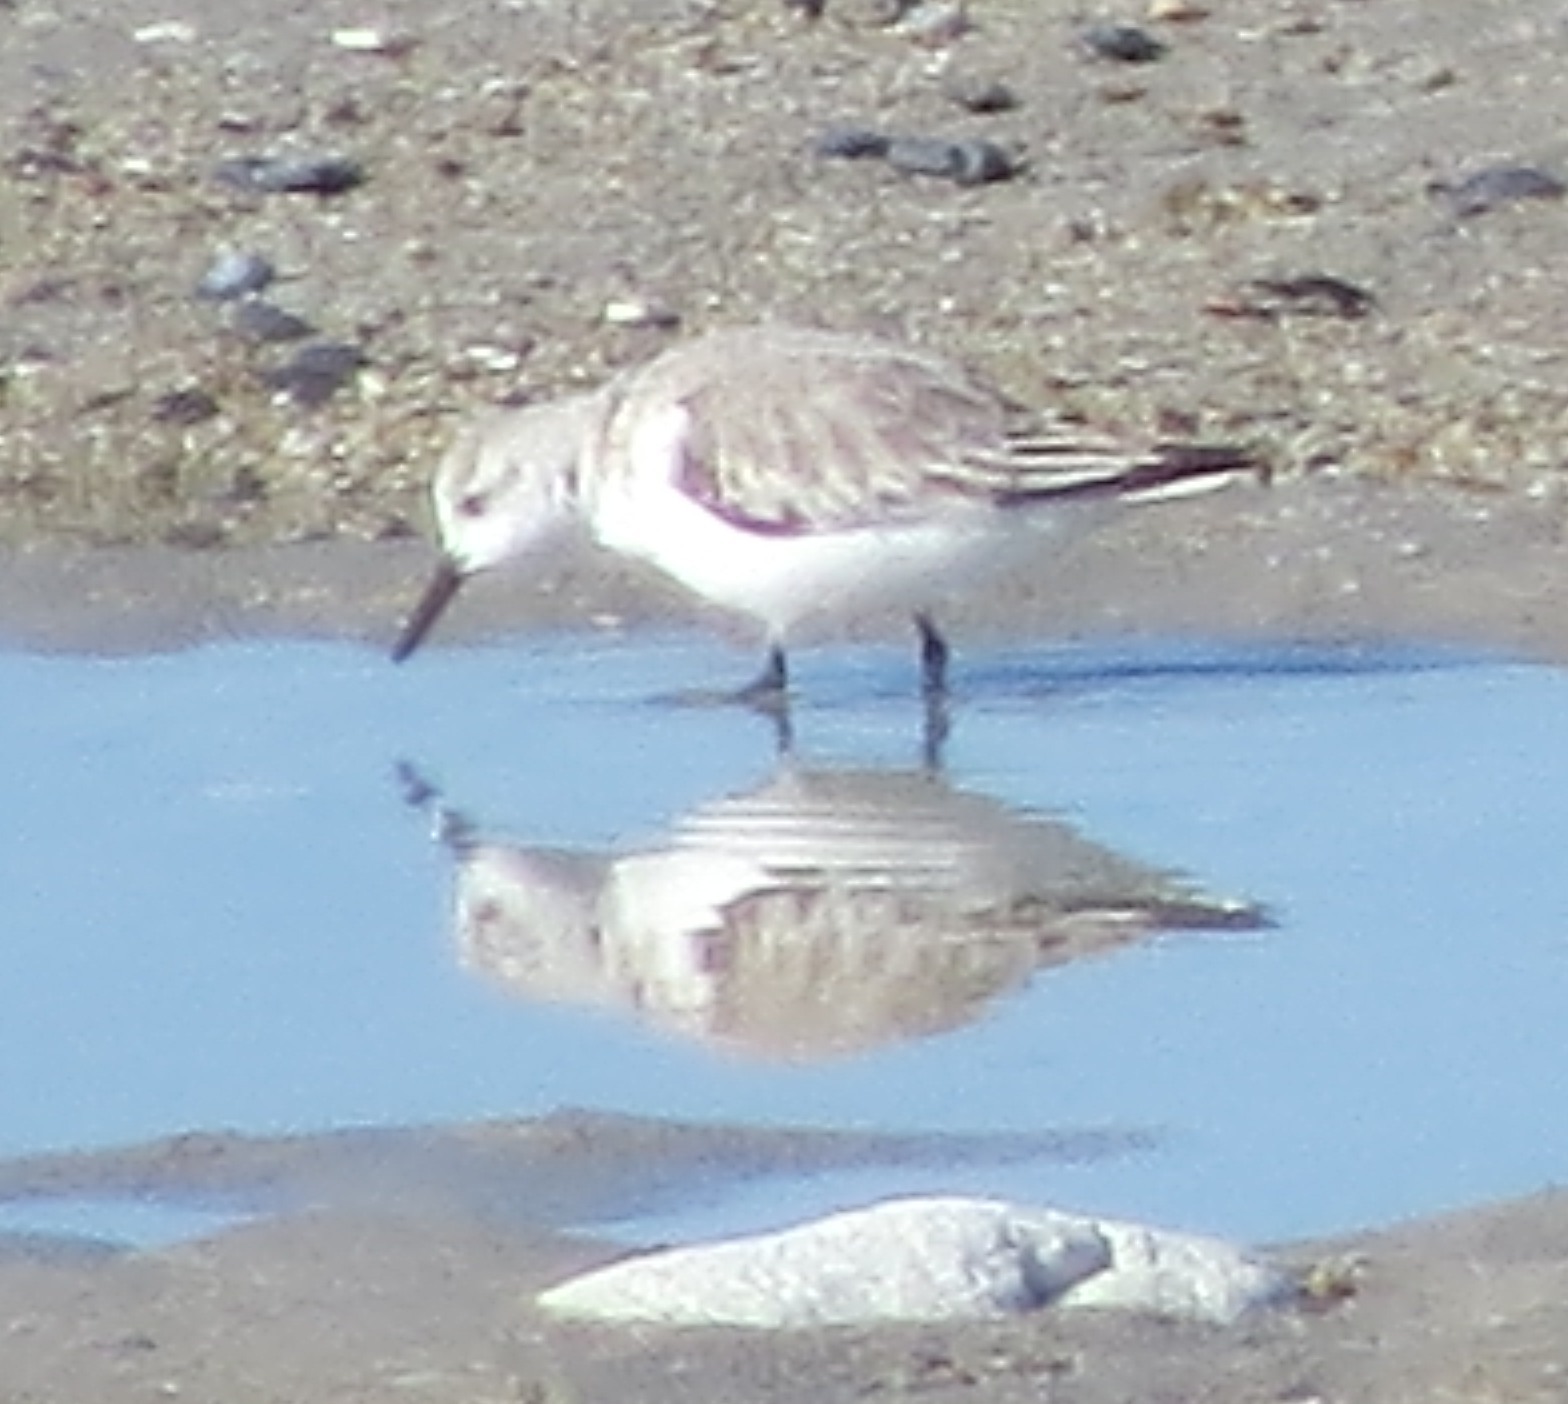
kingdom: Animalia
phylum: Chordata
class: Aves
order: Charadriiformes
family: Scolopacidae
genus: Calidris
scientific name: Calidris alba
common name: Sanderling
